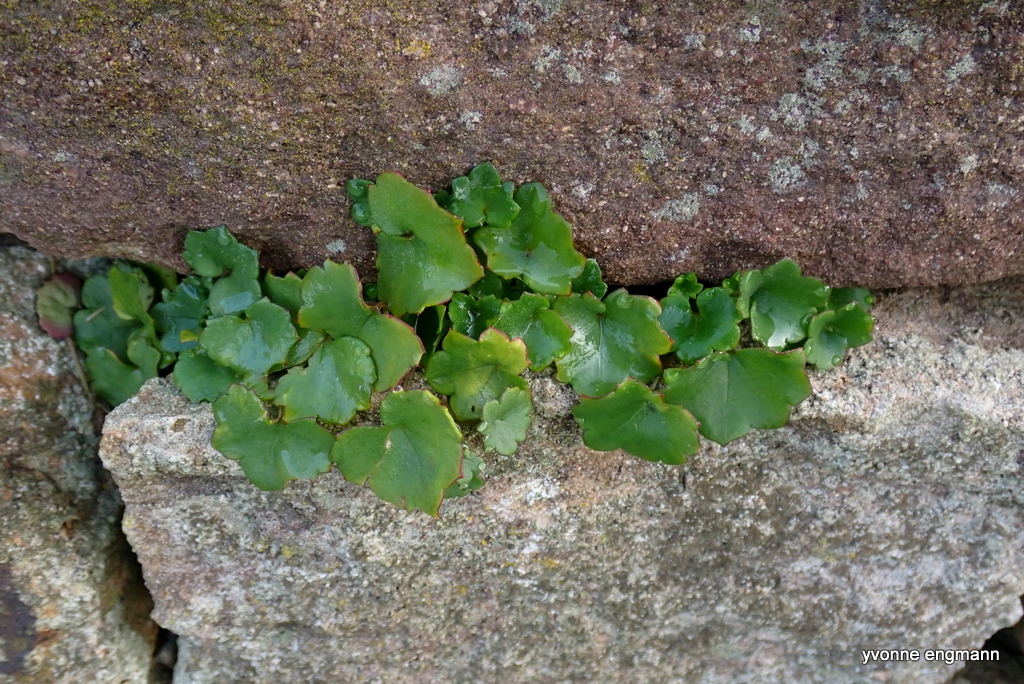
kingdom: Plantae
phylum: Tracheophyta
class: Magnoliopsida
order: Lamiales
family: Plantaginaceae
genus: Cymbalaria
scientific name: Cymbalaria muralis
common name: Ivy-leaved toadflax
